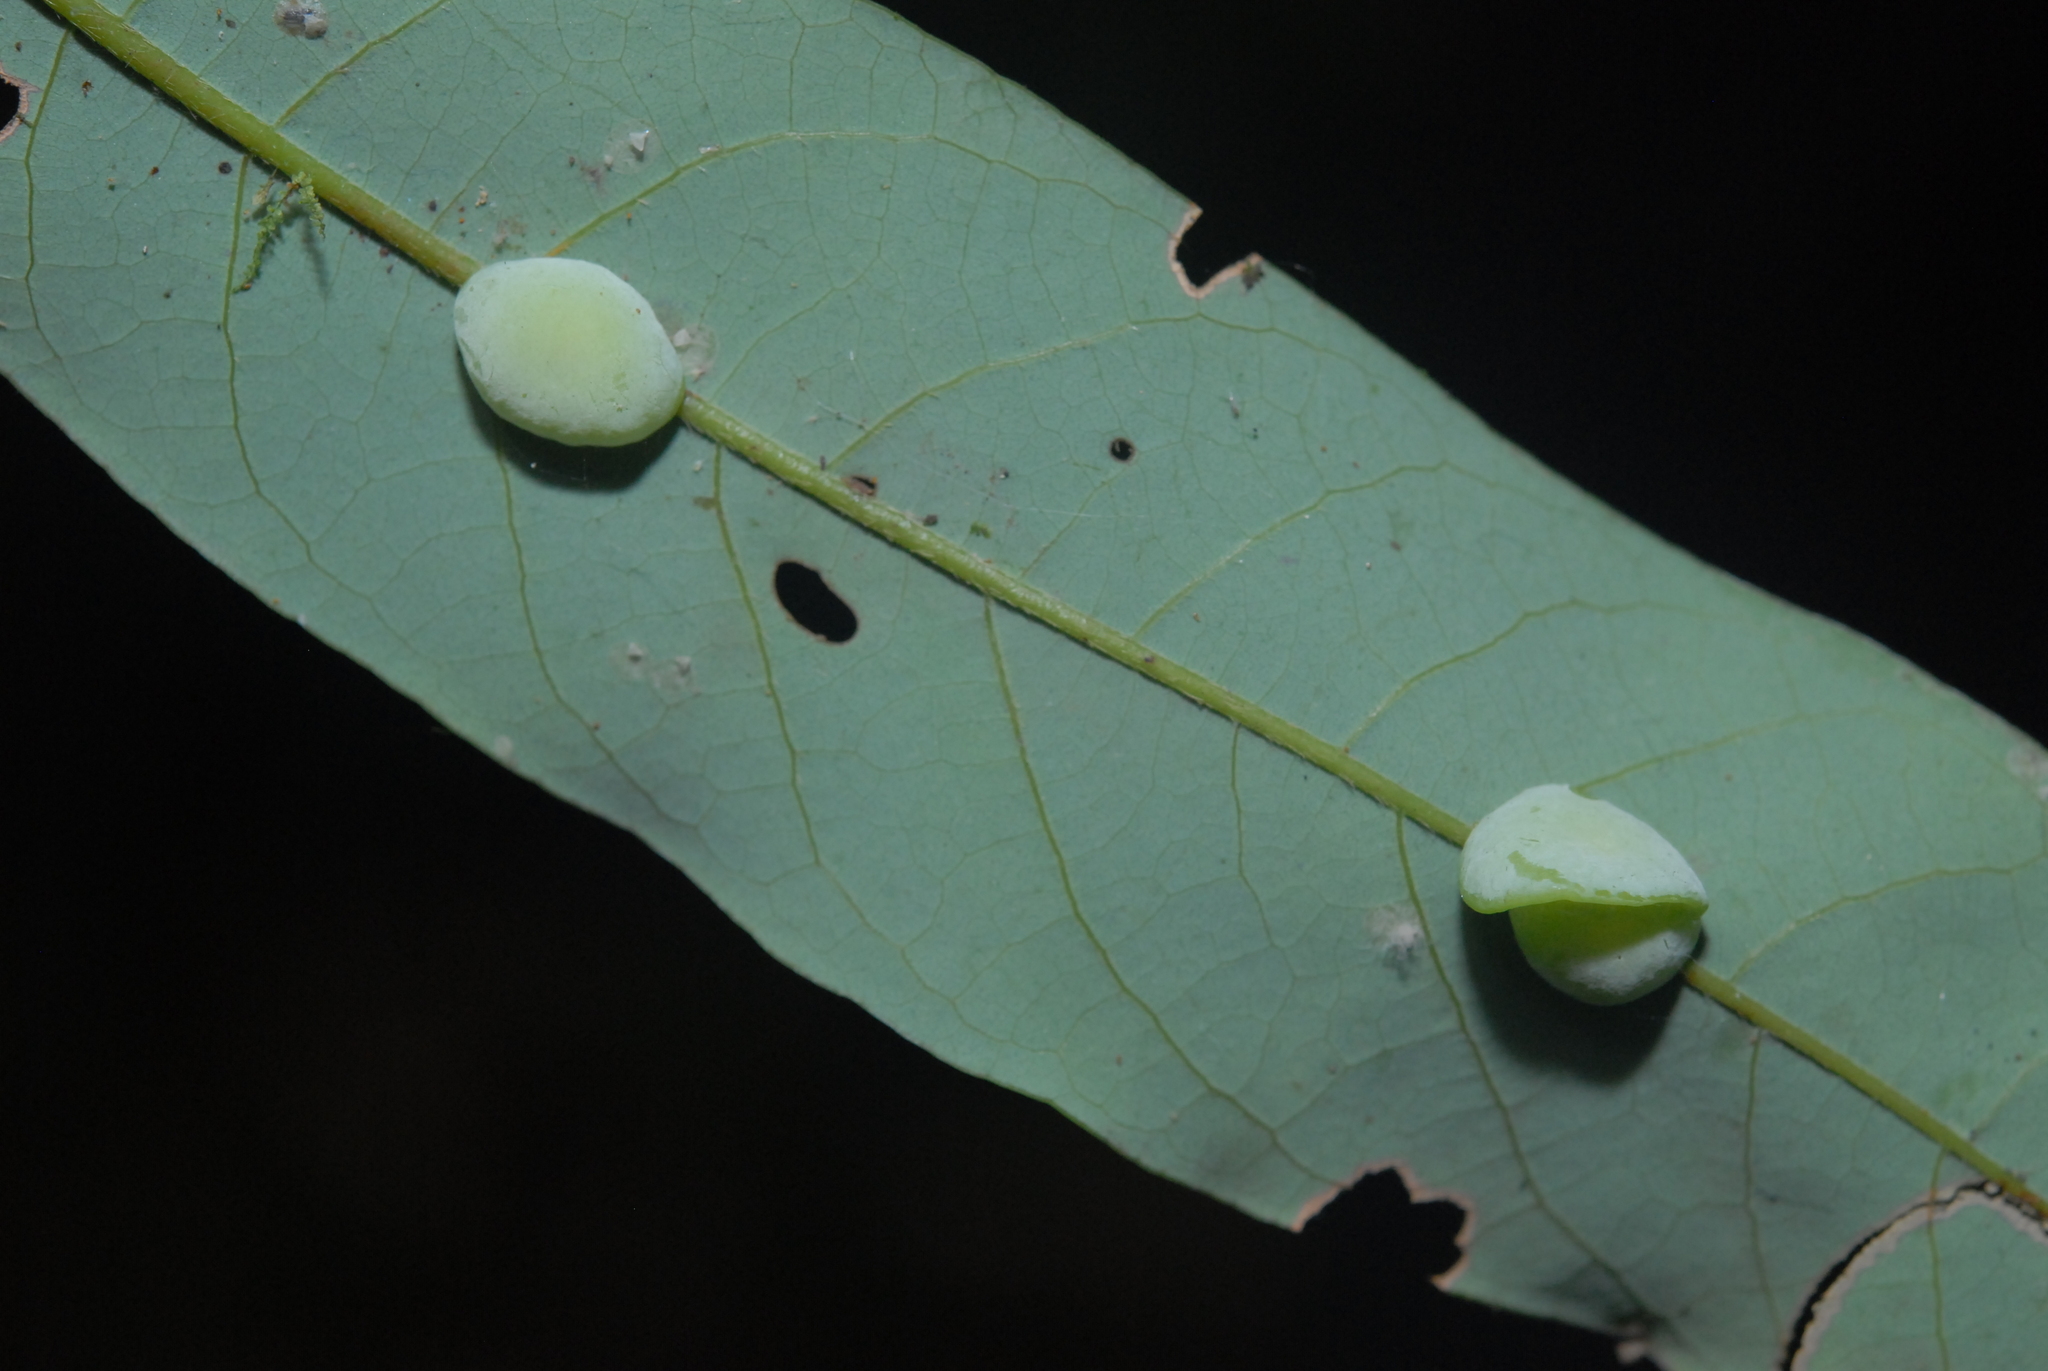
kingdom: Animalia
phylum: Arthropoda
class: Insecta
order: Diptera
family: Cecidomyiidae
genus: Odontokeros
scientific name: Odontokeros litseae
